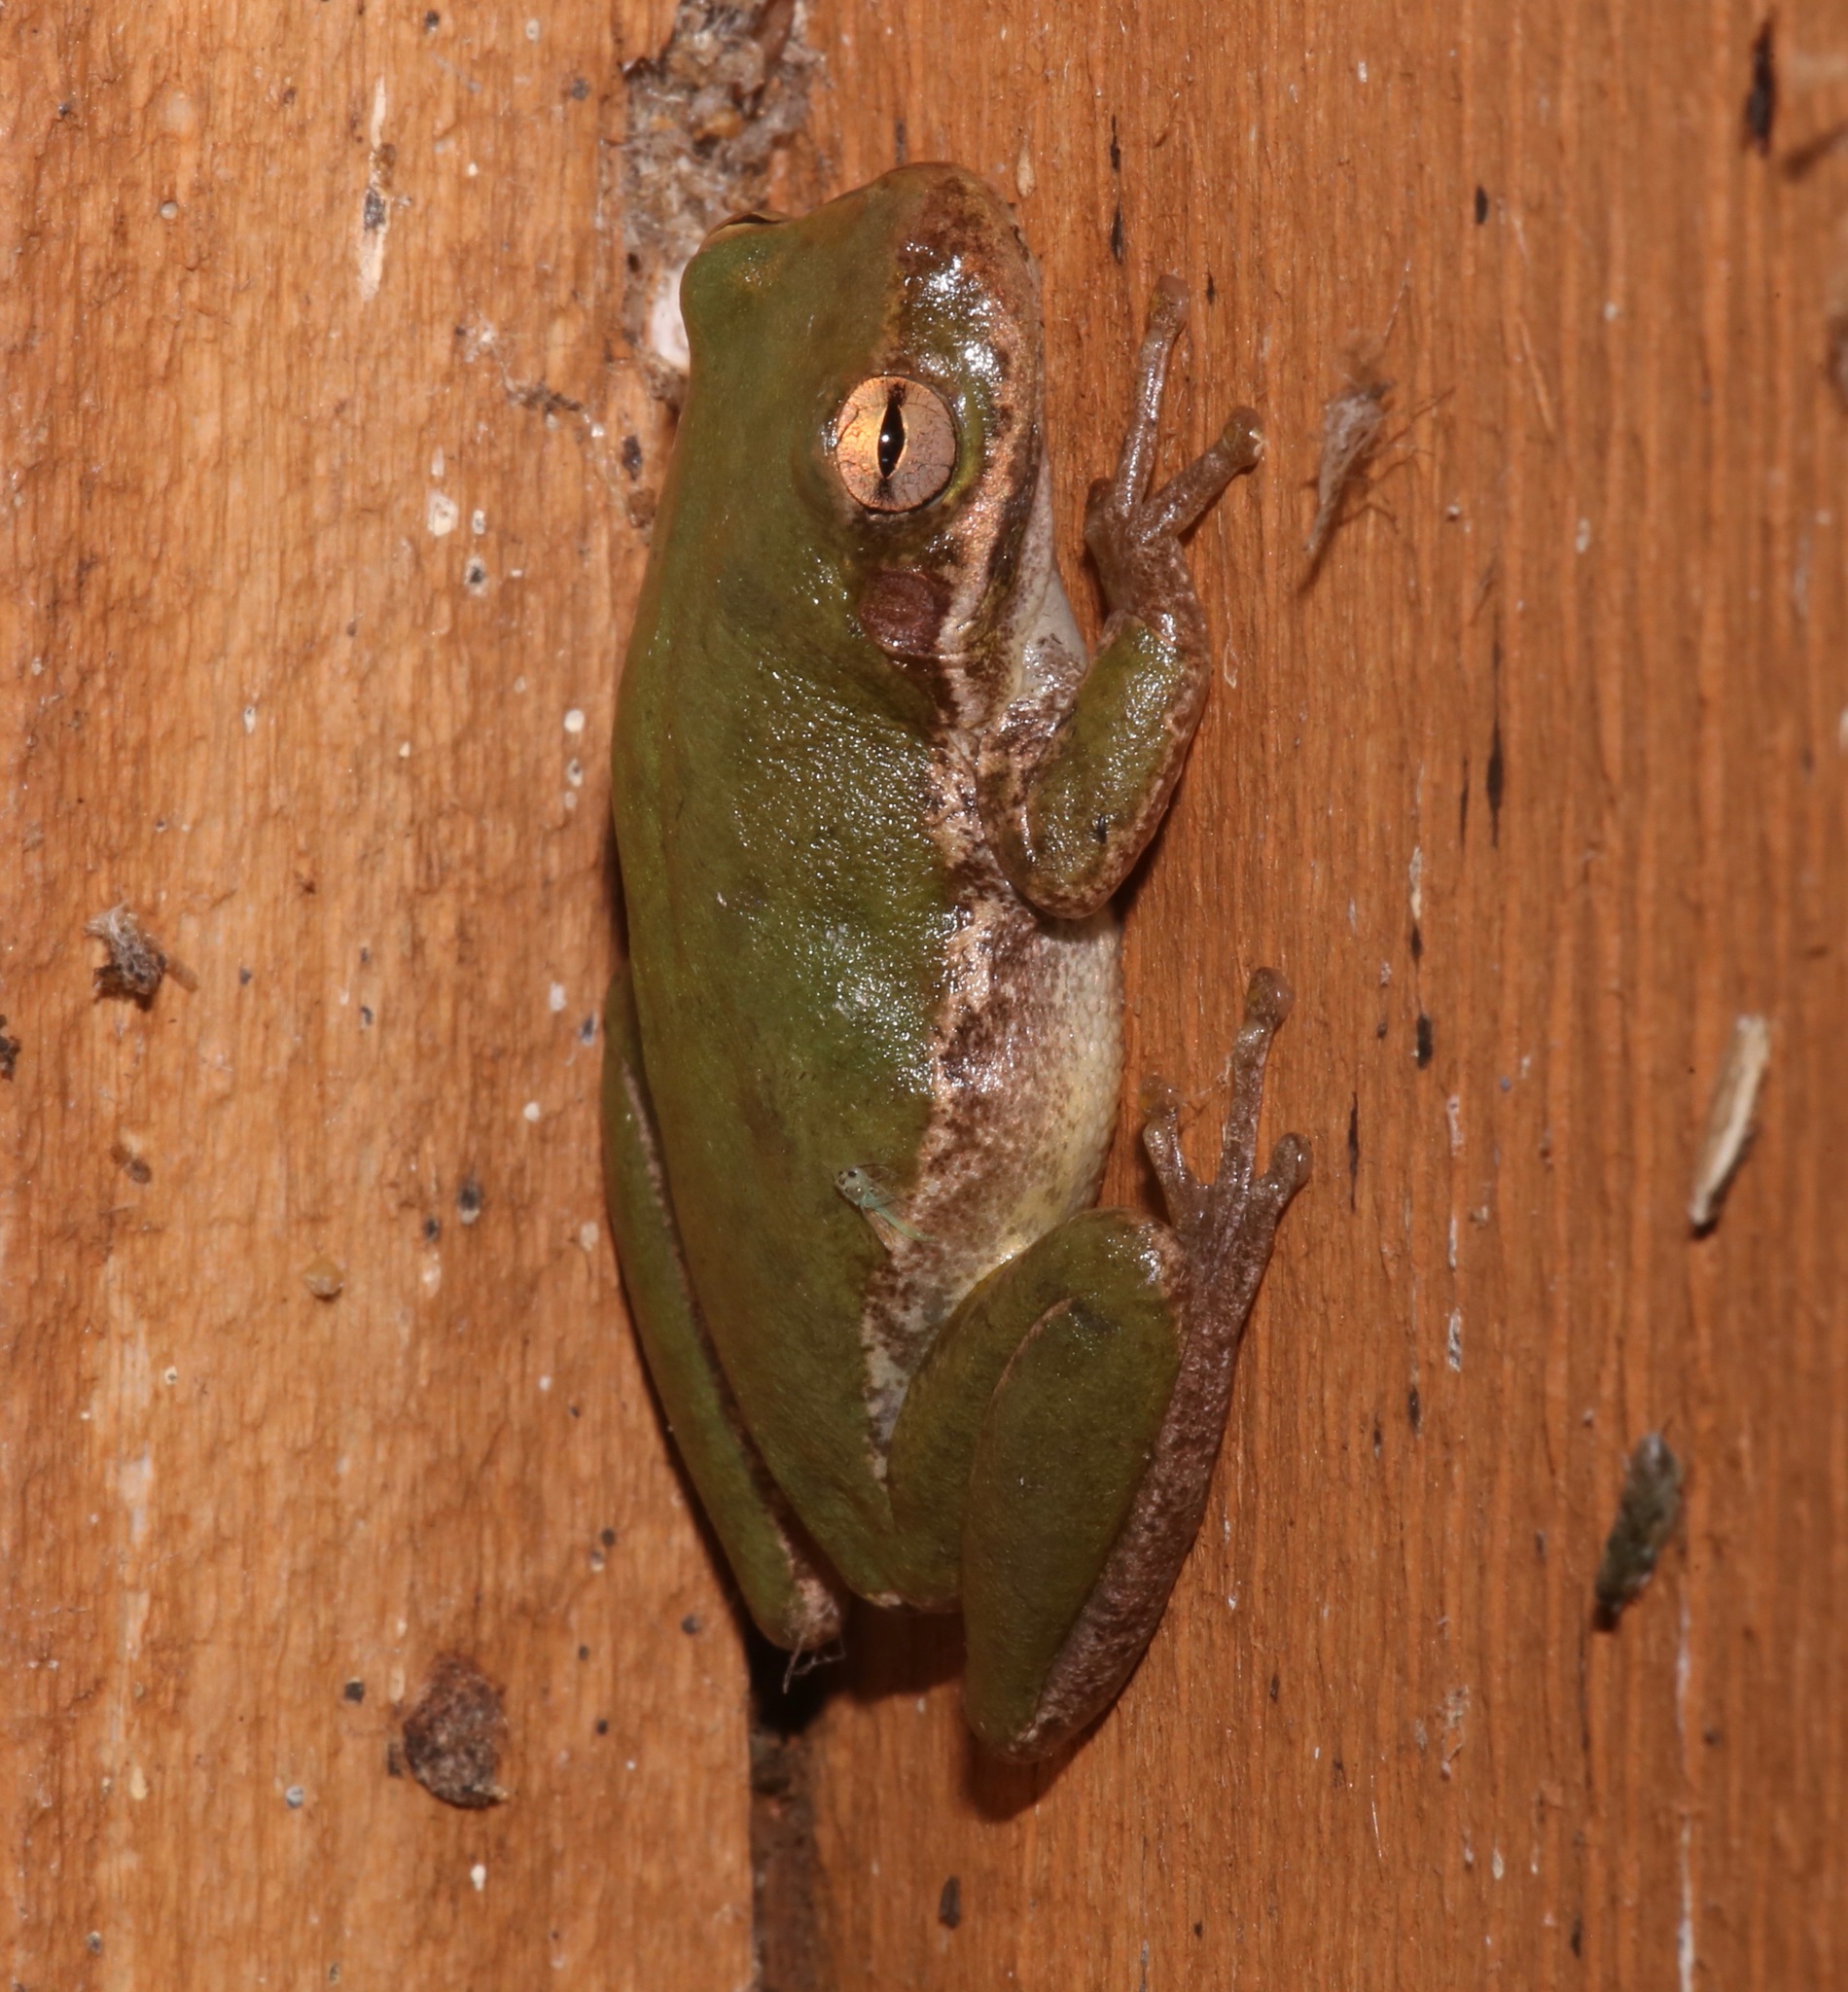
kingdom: Animalia
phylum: Chordata
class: Amphibia
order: Anura
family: Hylidae
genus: Dryophytes
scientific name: Dryophytes squirellus
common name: Squirrel treefrog
